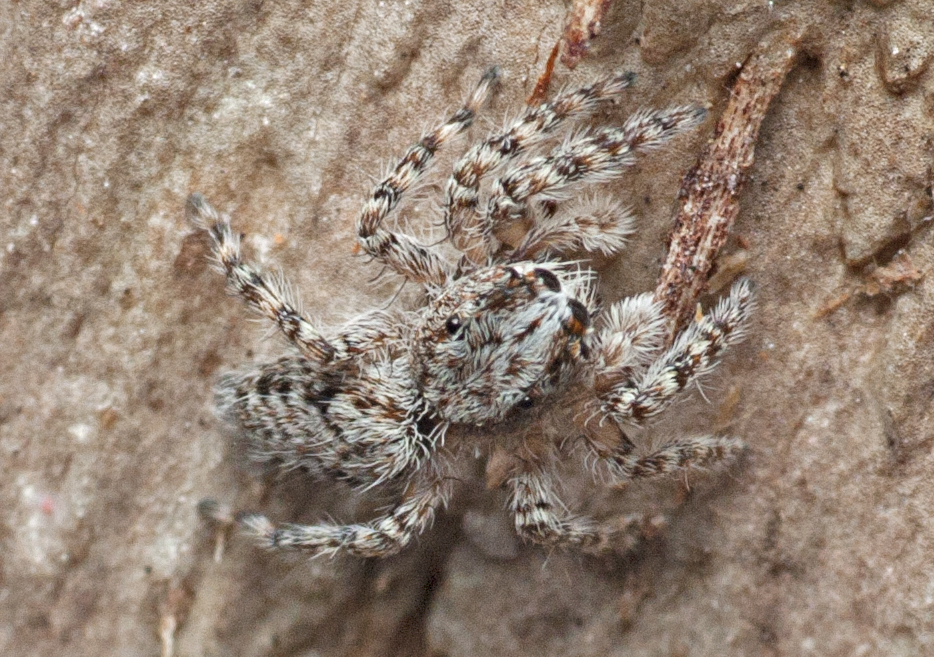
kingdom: Animalia
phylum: Arthropoda
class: Arachnida
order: Araneae
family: Salticidae
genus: Clynotis
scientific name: Clynotis severus
